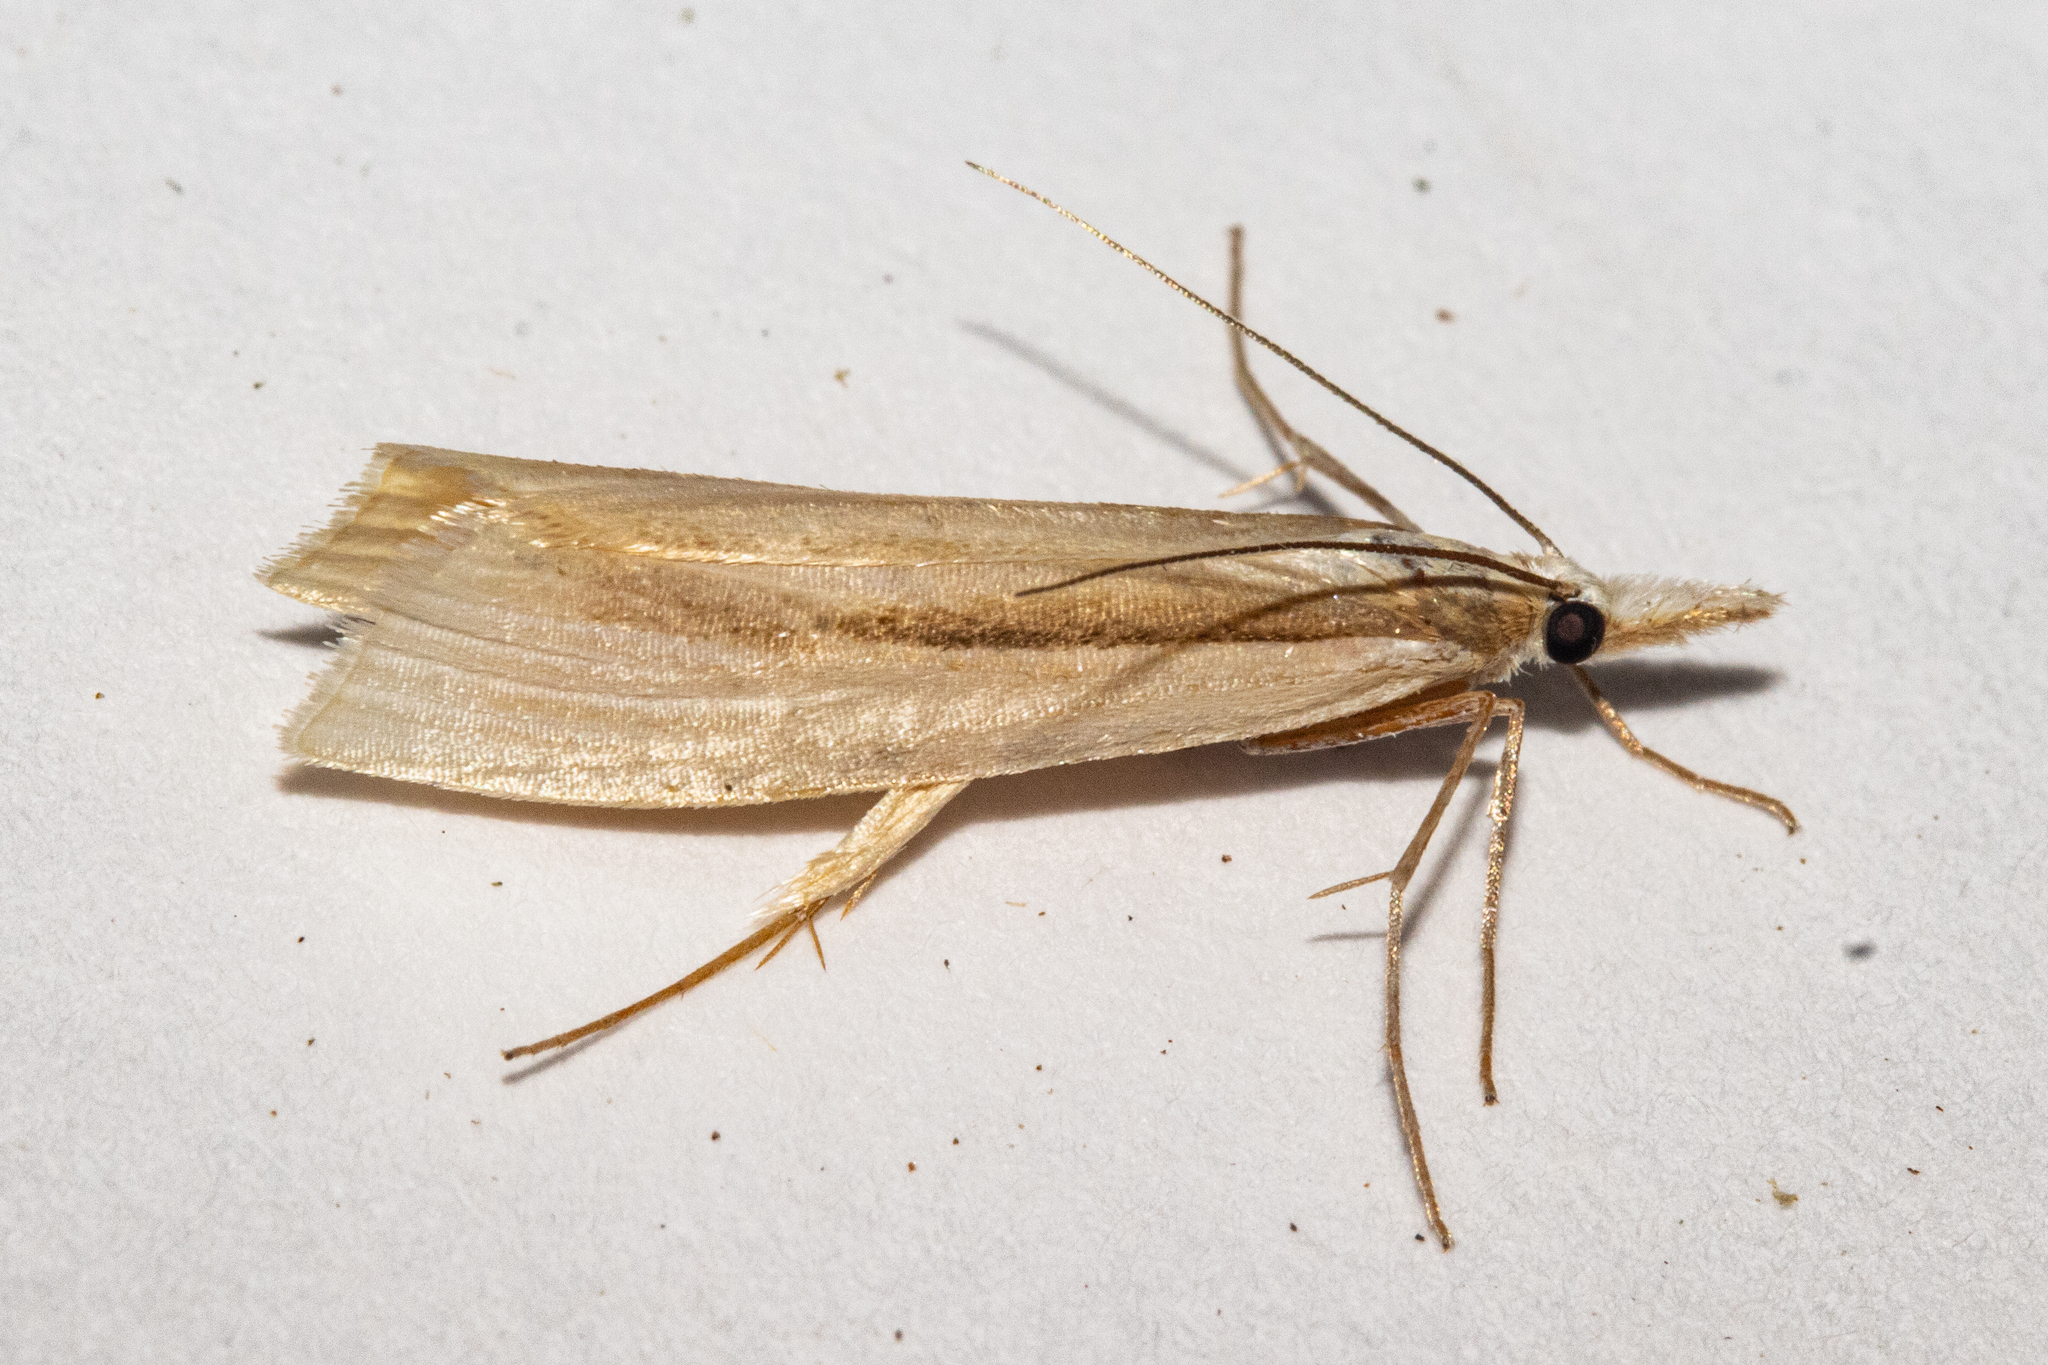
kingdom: Animalia
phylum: Arthropoda
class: Insecta
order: Lepidoptera
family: Crambidae
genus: Orocrambus
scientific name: Orocrambus ramosellus
